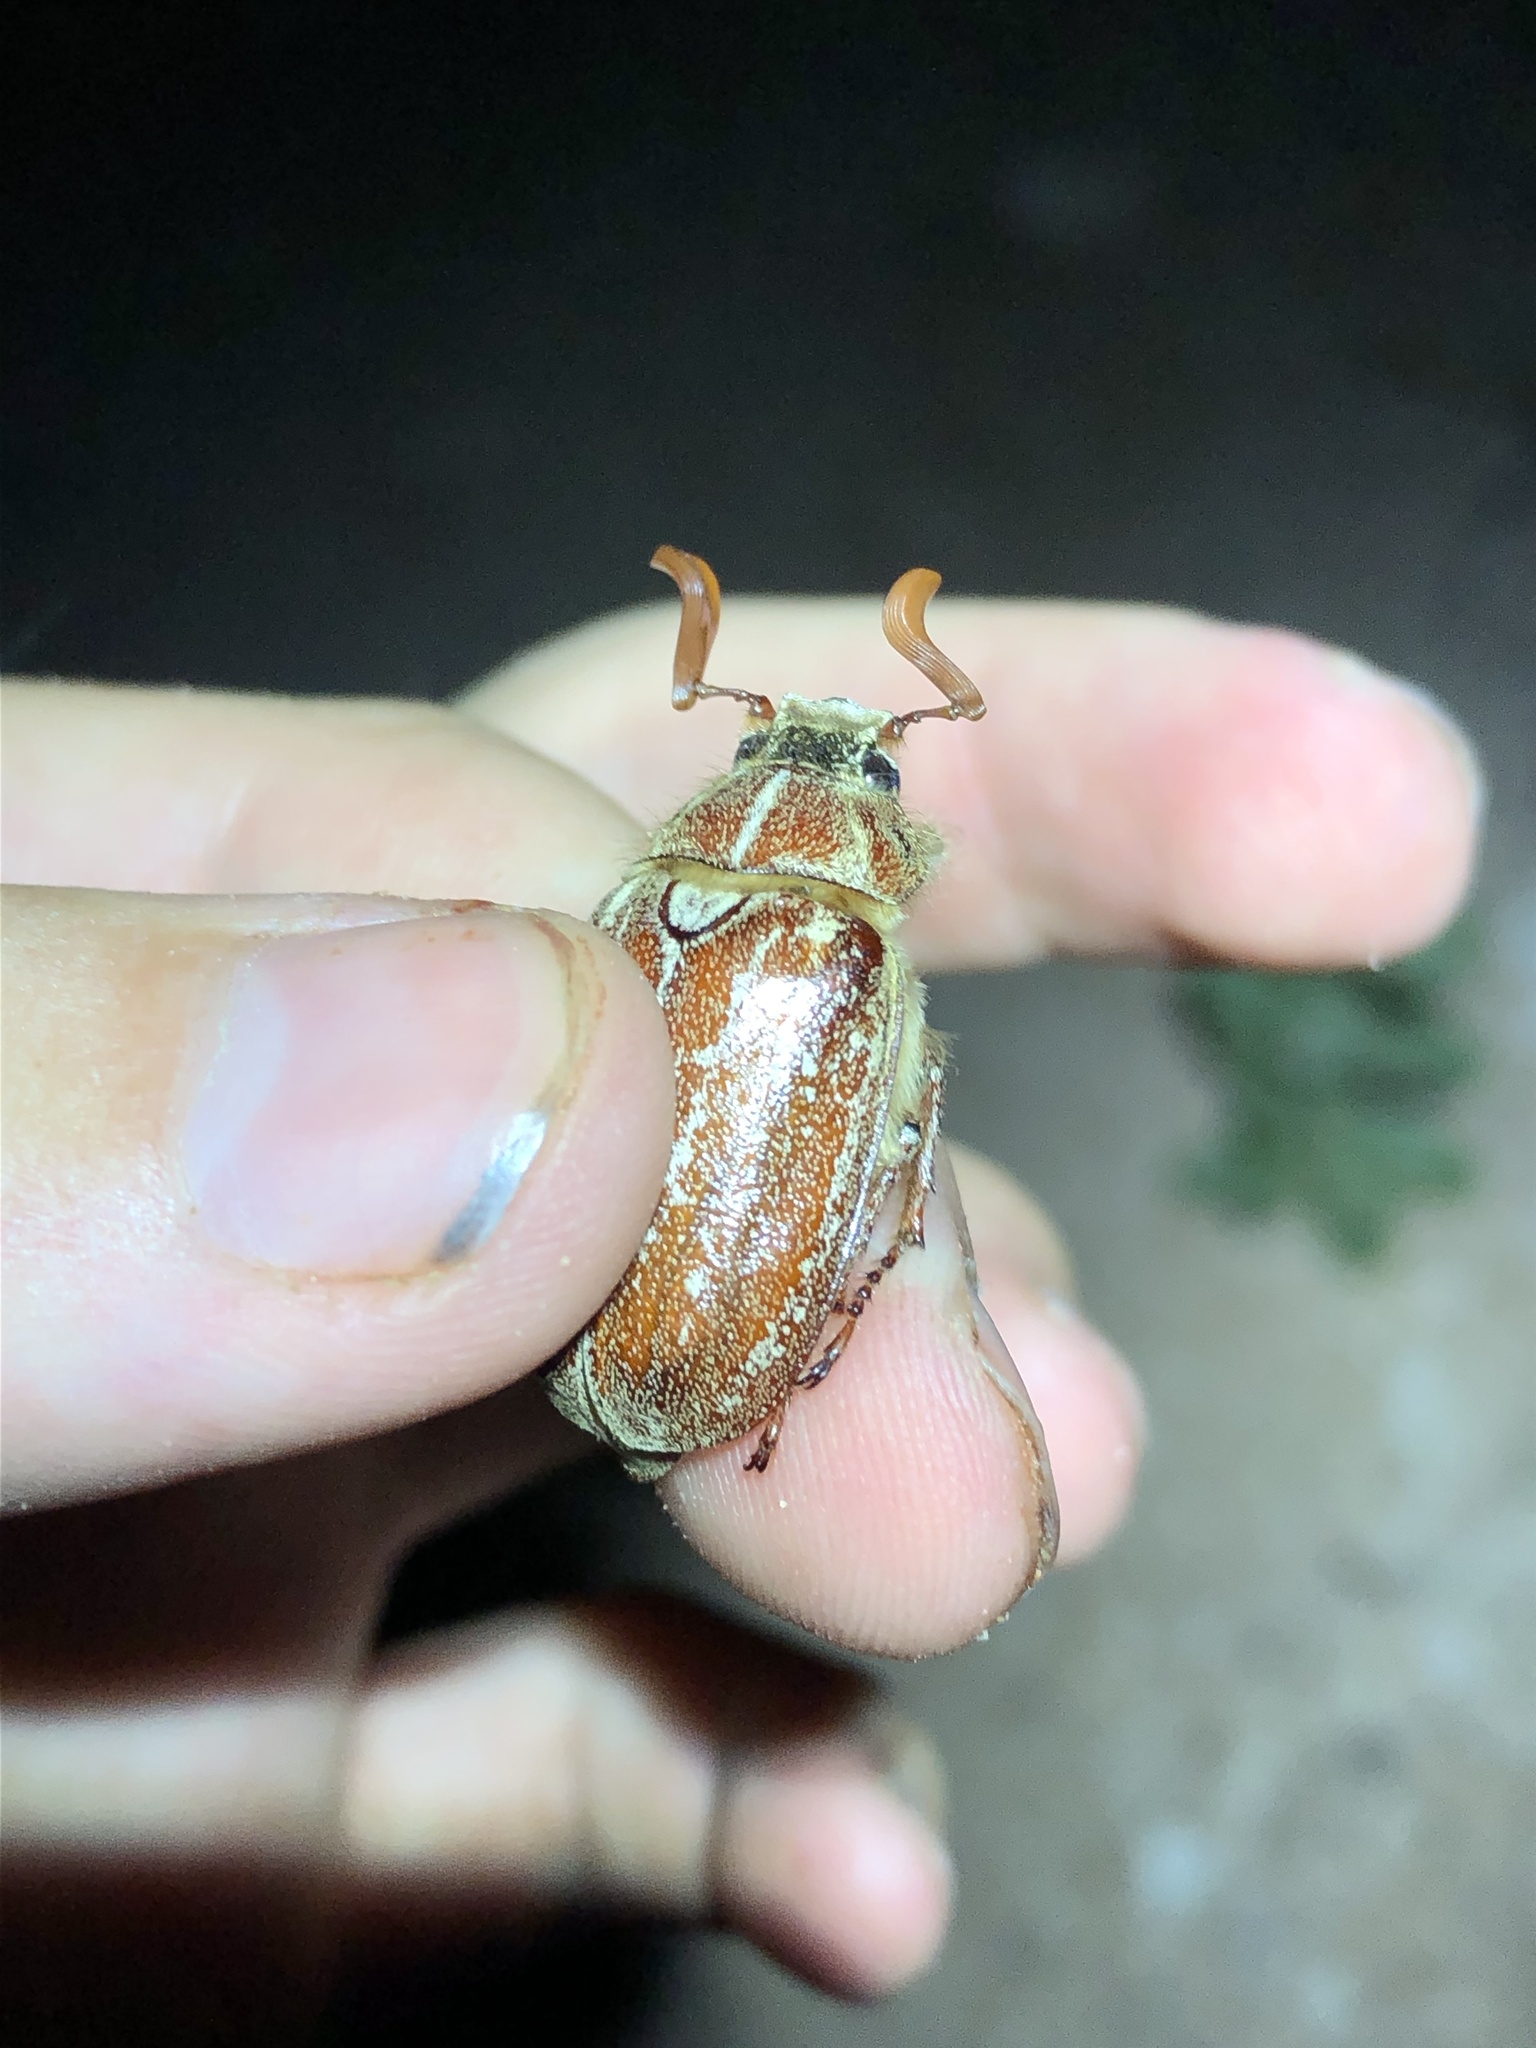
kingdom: Animalia
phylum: Arthropoda
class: Insecta
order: Coleoptera
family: Scarabaeidae
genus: Polyphylla
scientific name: Polyphylla mescalerensis
